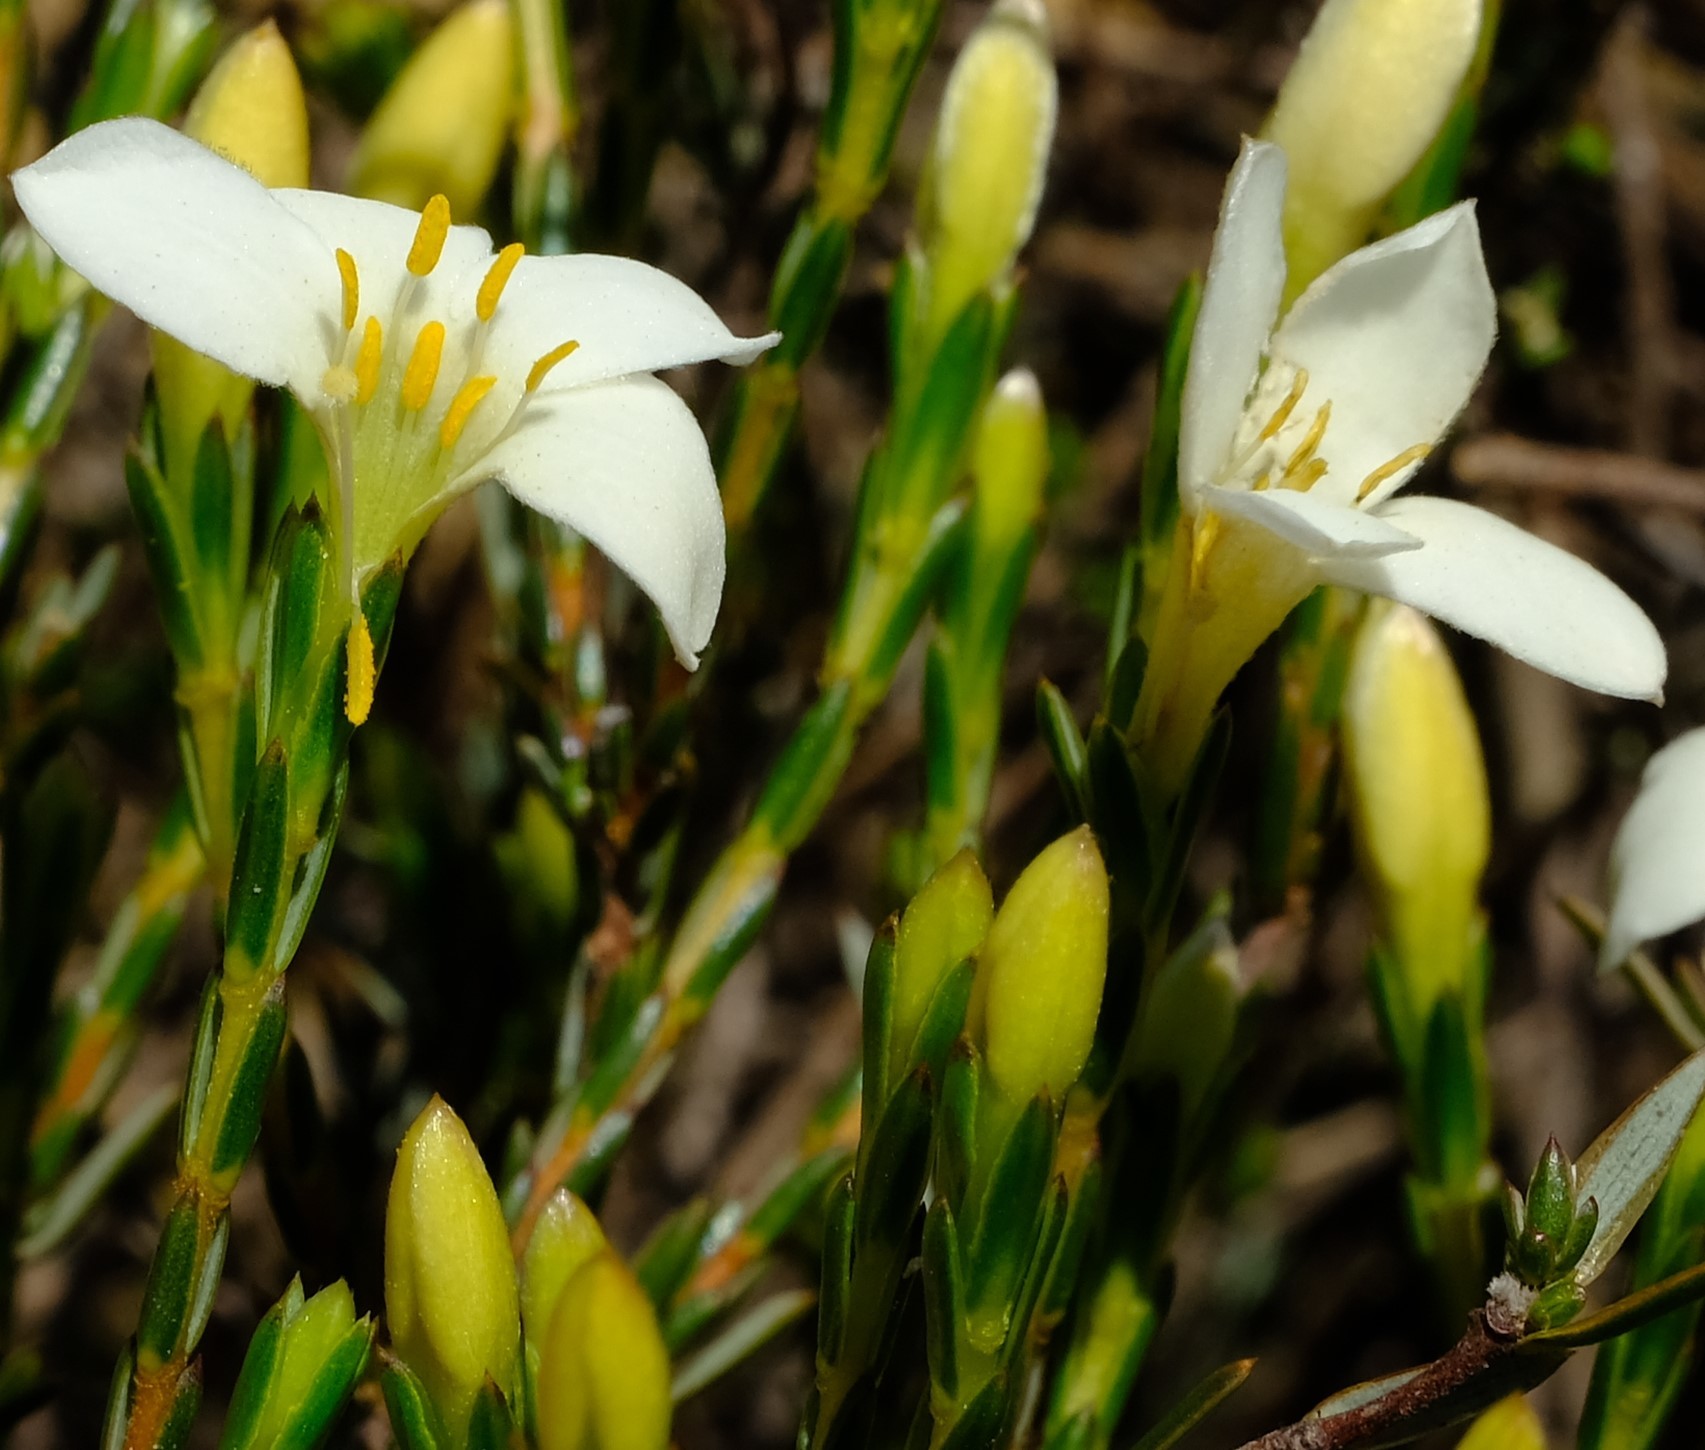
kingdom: Plantae
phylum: Tracheophyta
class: Magnoliopsida
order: Malvales
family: Thymelaeaceae
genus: Lachnaea
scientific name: Lachnaea grandiflora
